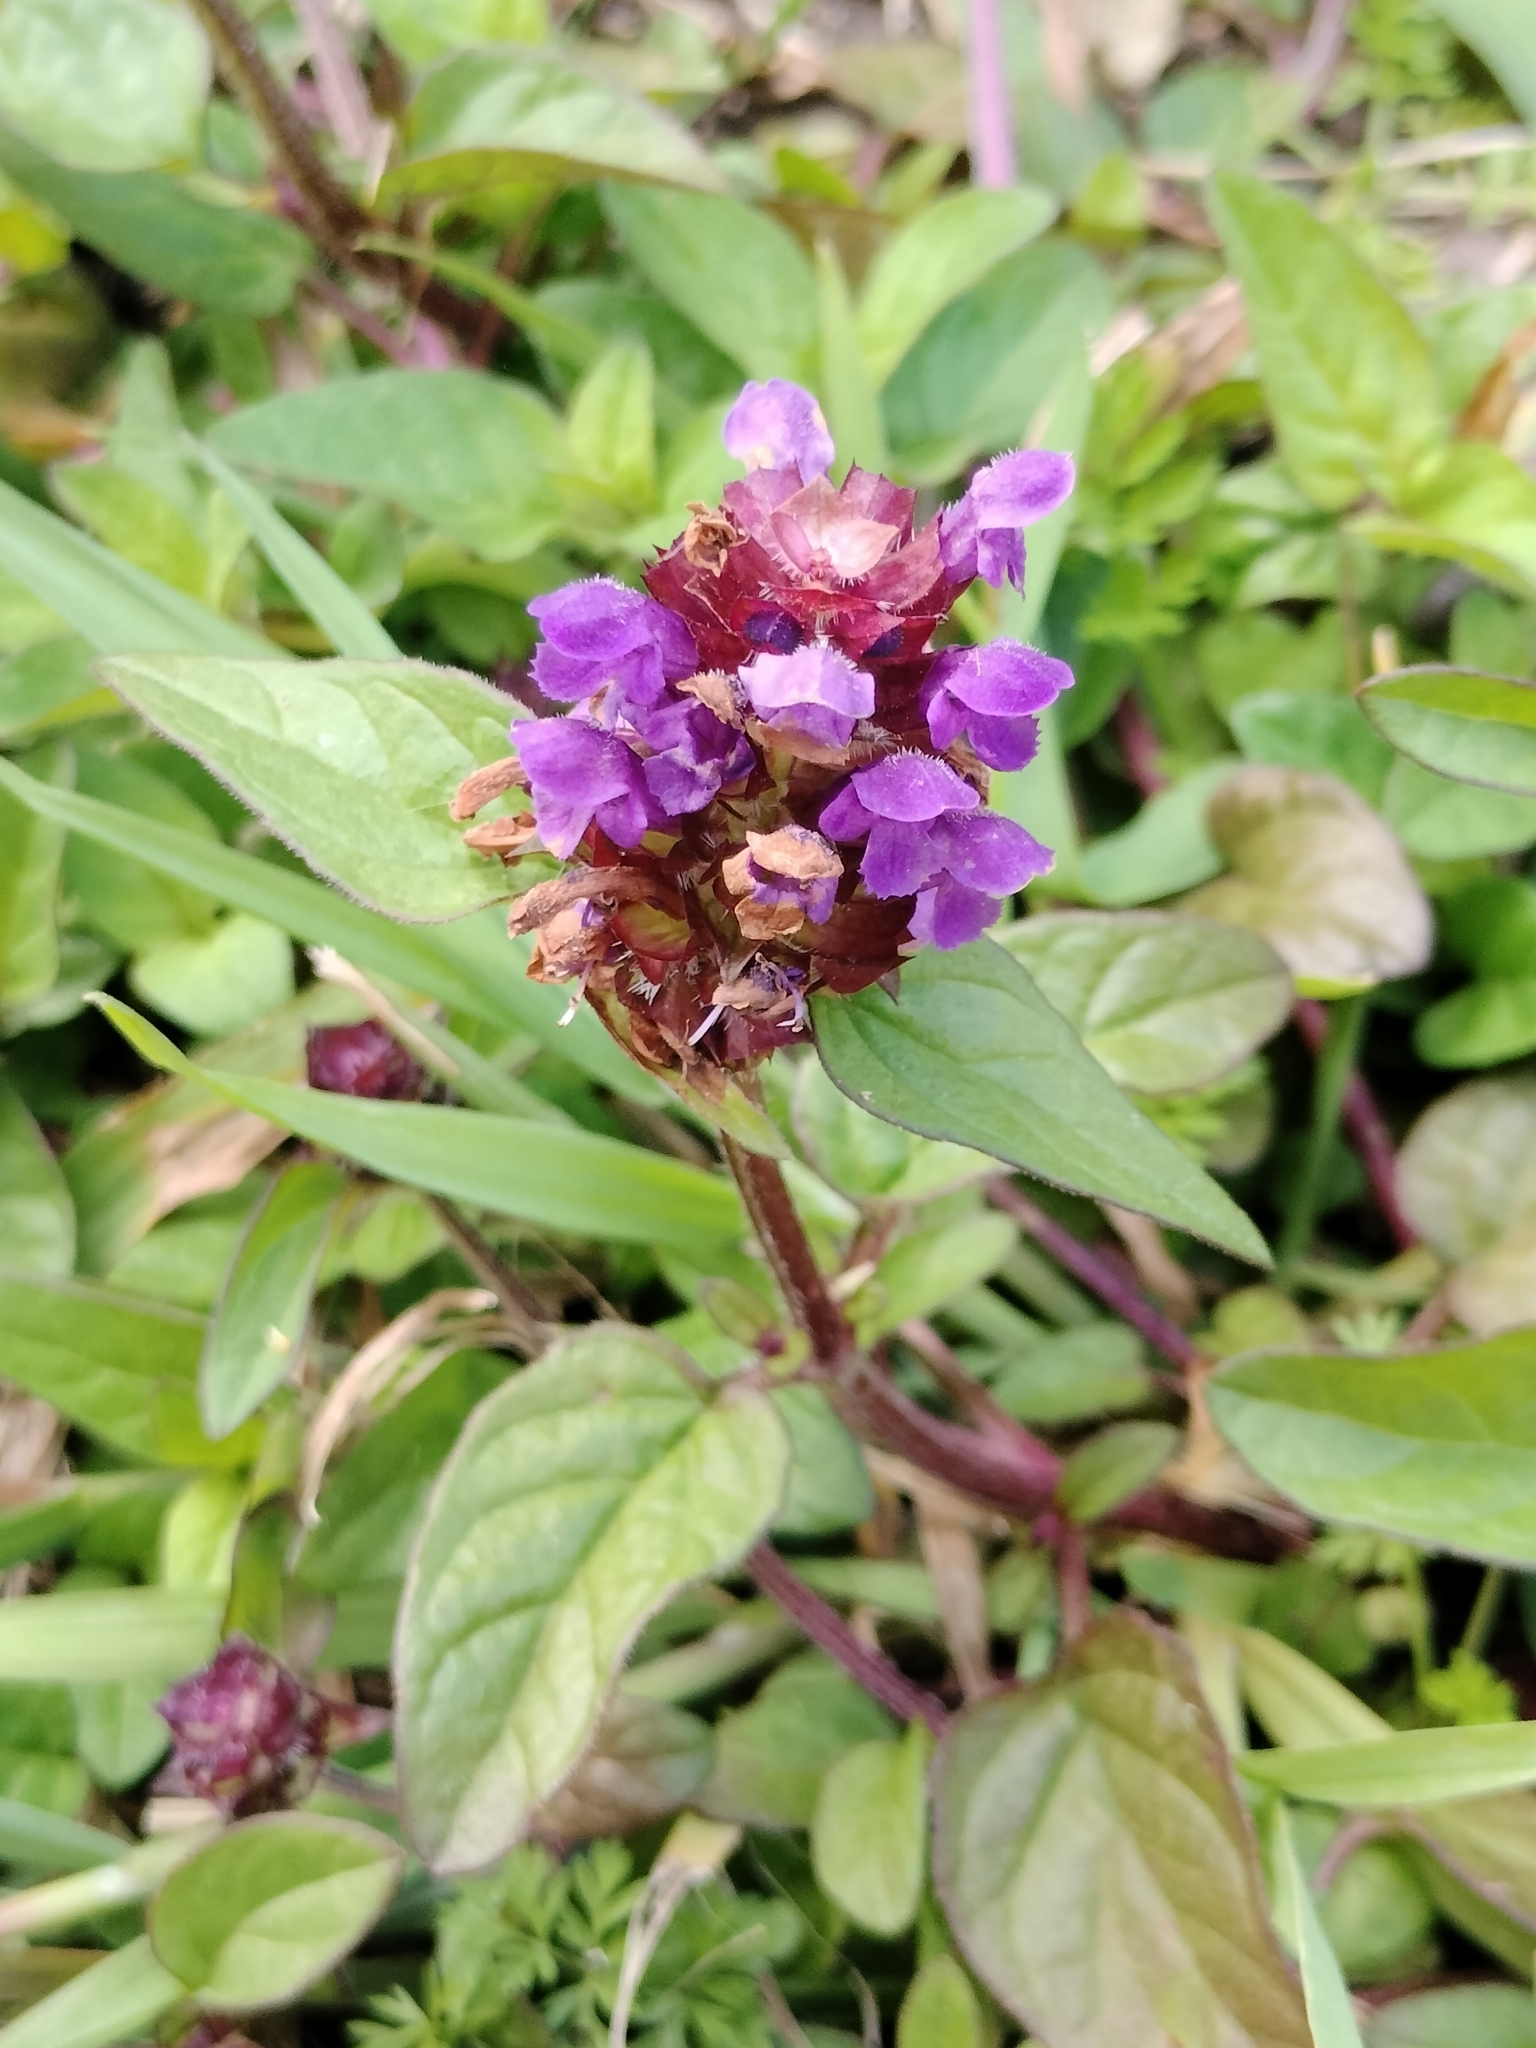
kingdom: Plantae
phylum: Tracheophyta
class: Magnoliopsida
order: Lamiales
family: Lamiaceae
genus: Prunella
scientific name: Prunella vulgaris
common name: Heal-all
